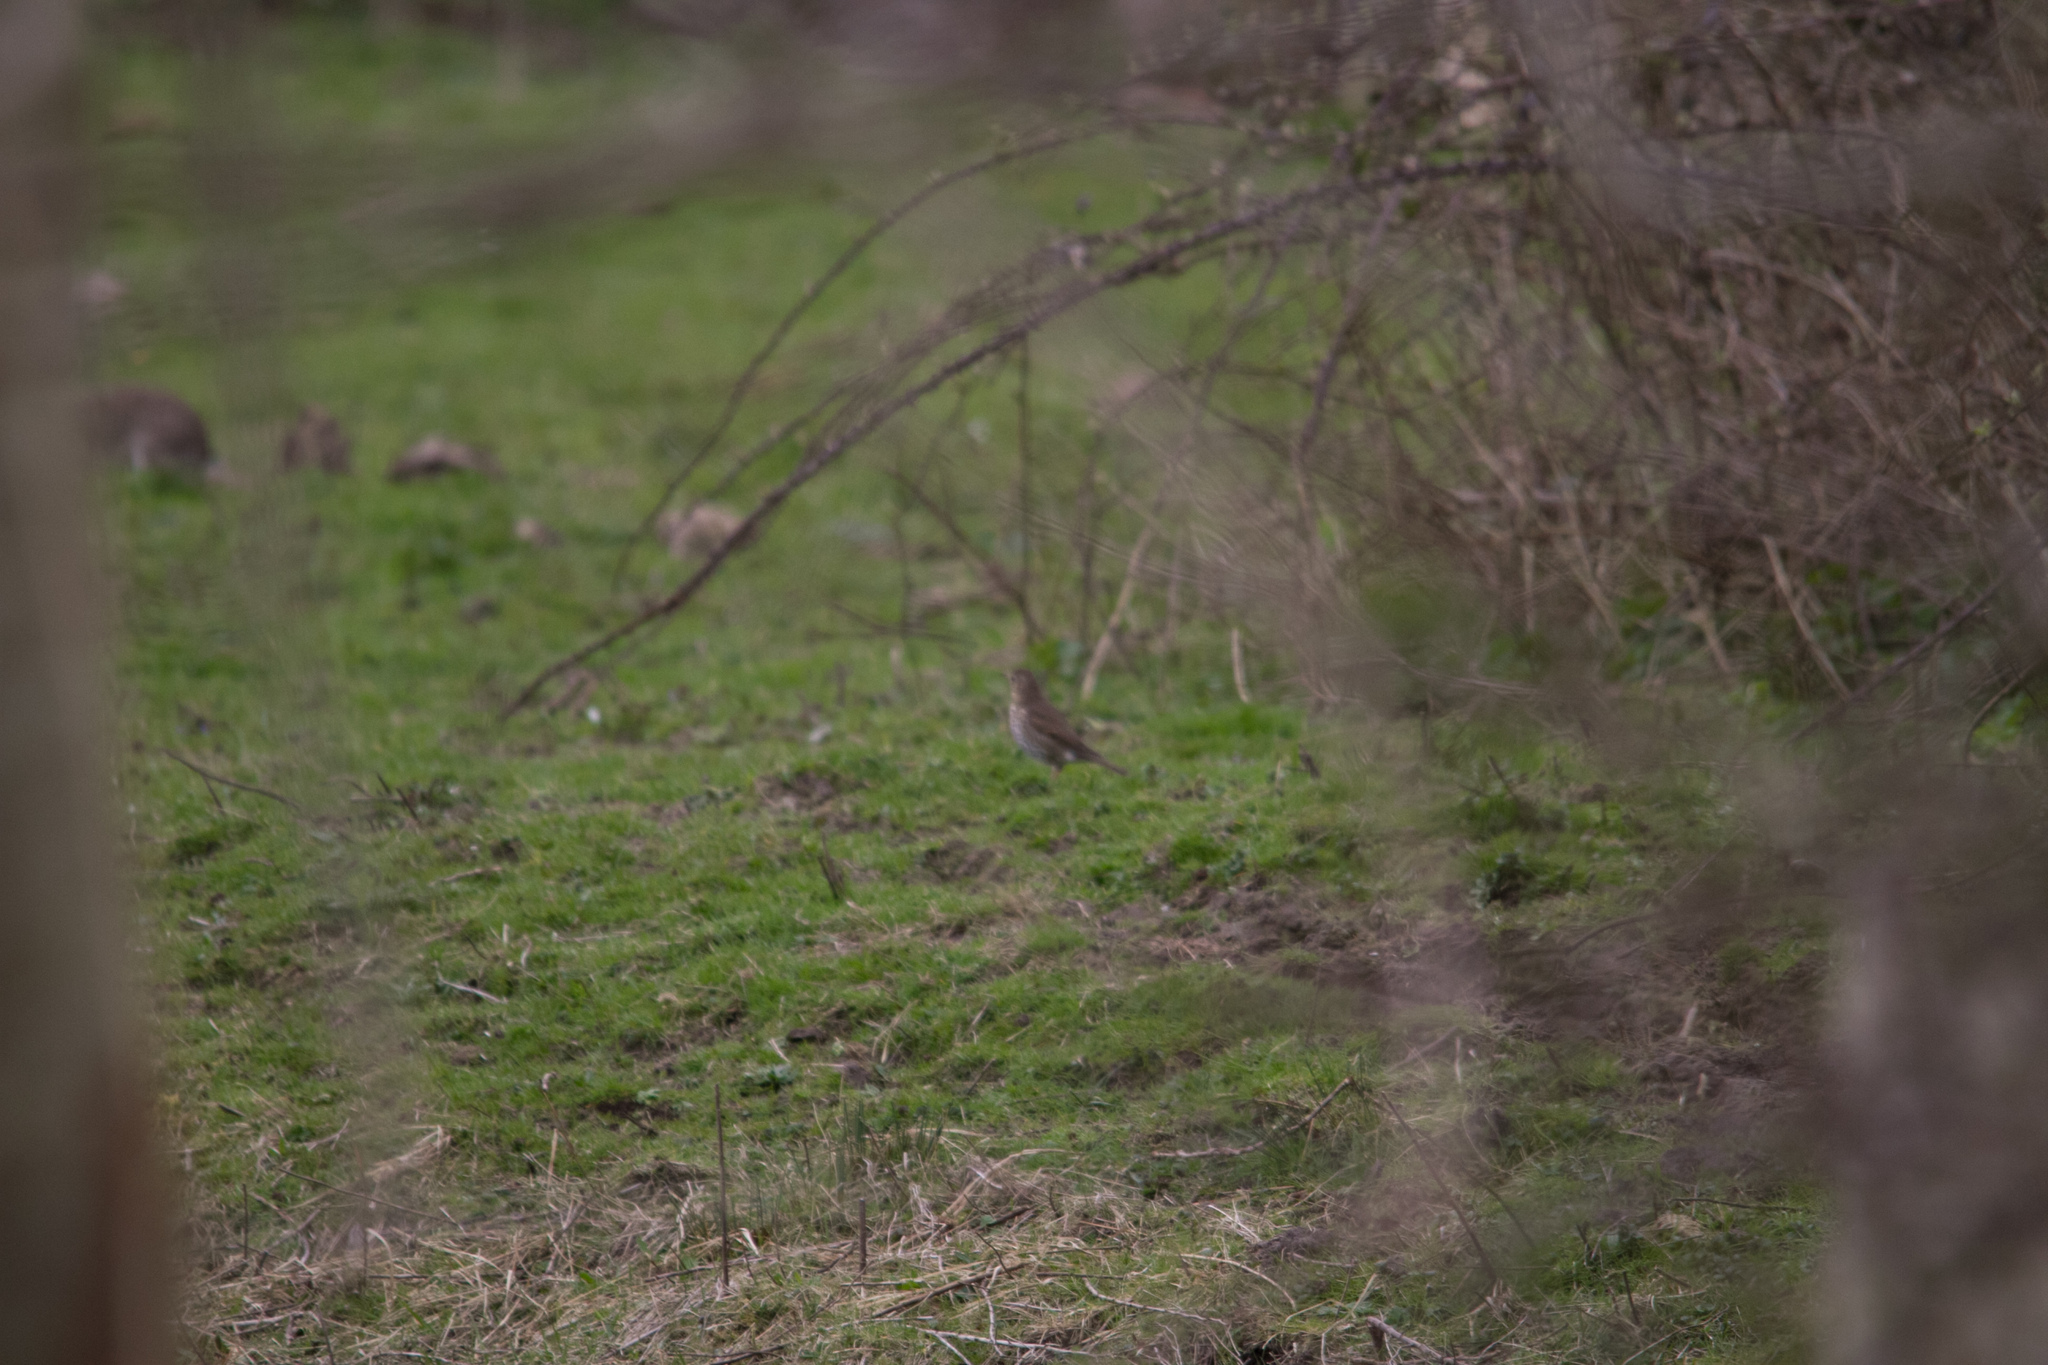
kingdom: Animalia
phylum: Chordata
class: Aves
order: Passeriformes
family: Turdidae
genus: Turdus
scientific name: Turdus philomelos
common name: Song thrush
